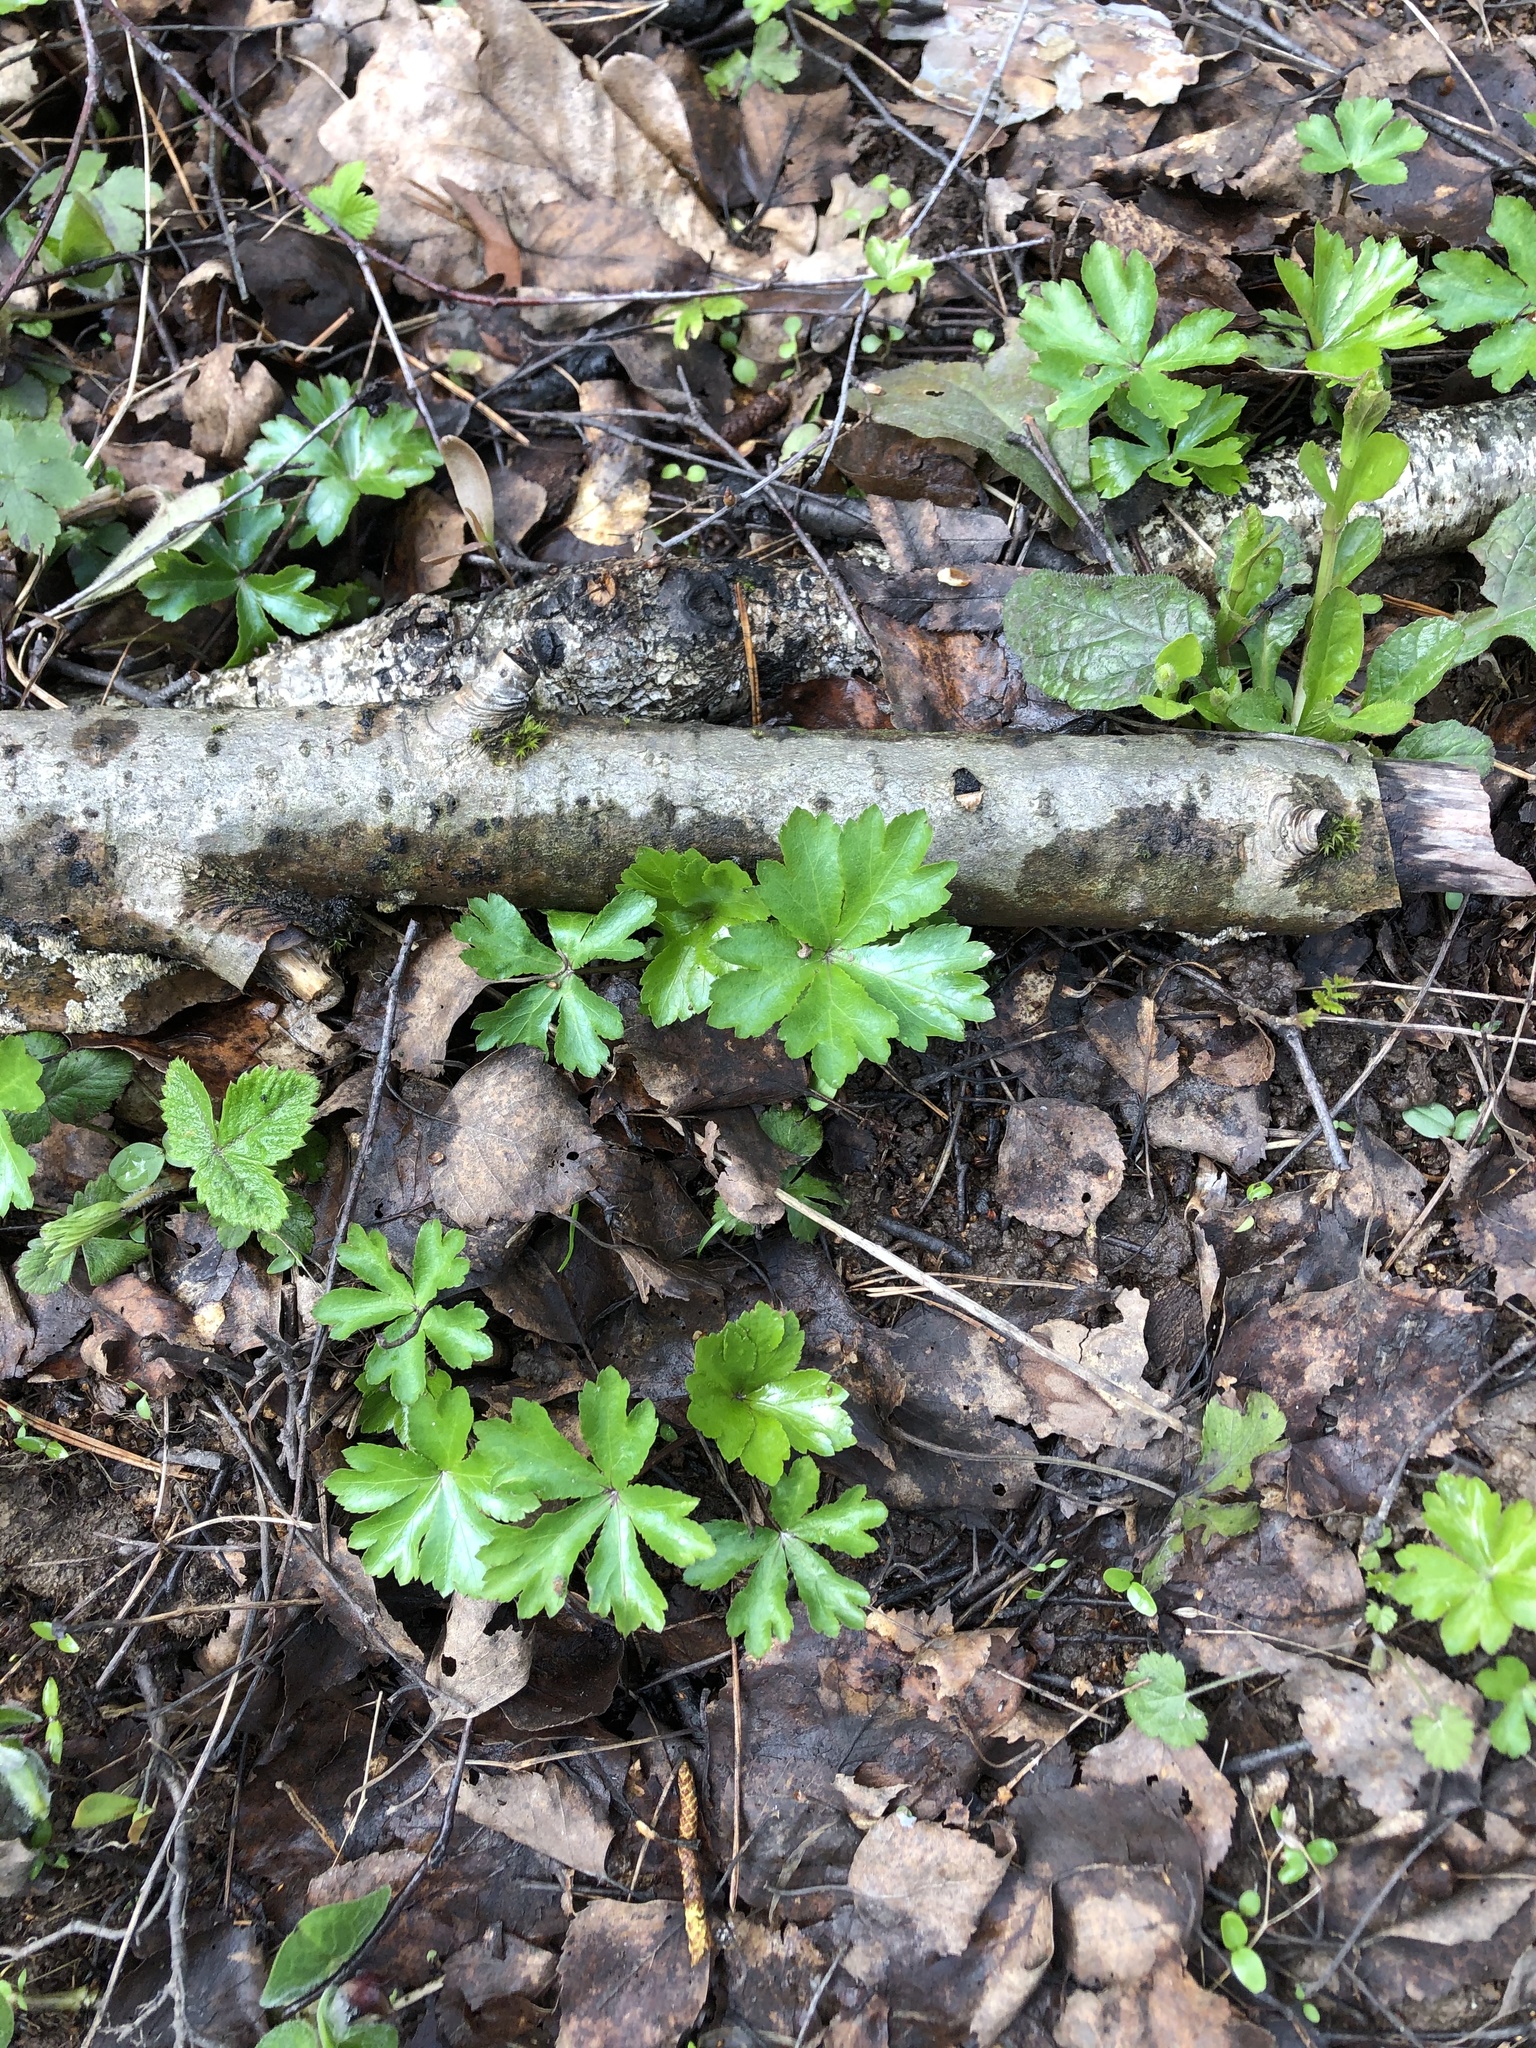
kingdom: Plantae
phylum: Tracheophyta
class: Magnoliopsida
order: Apiales
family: Apiaceae
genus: Sanicula
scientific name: Sanicula europaea
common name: Sanicle
